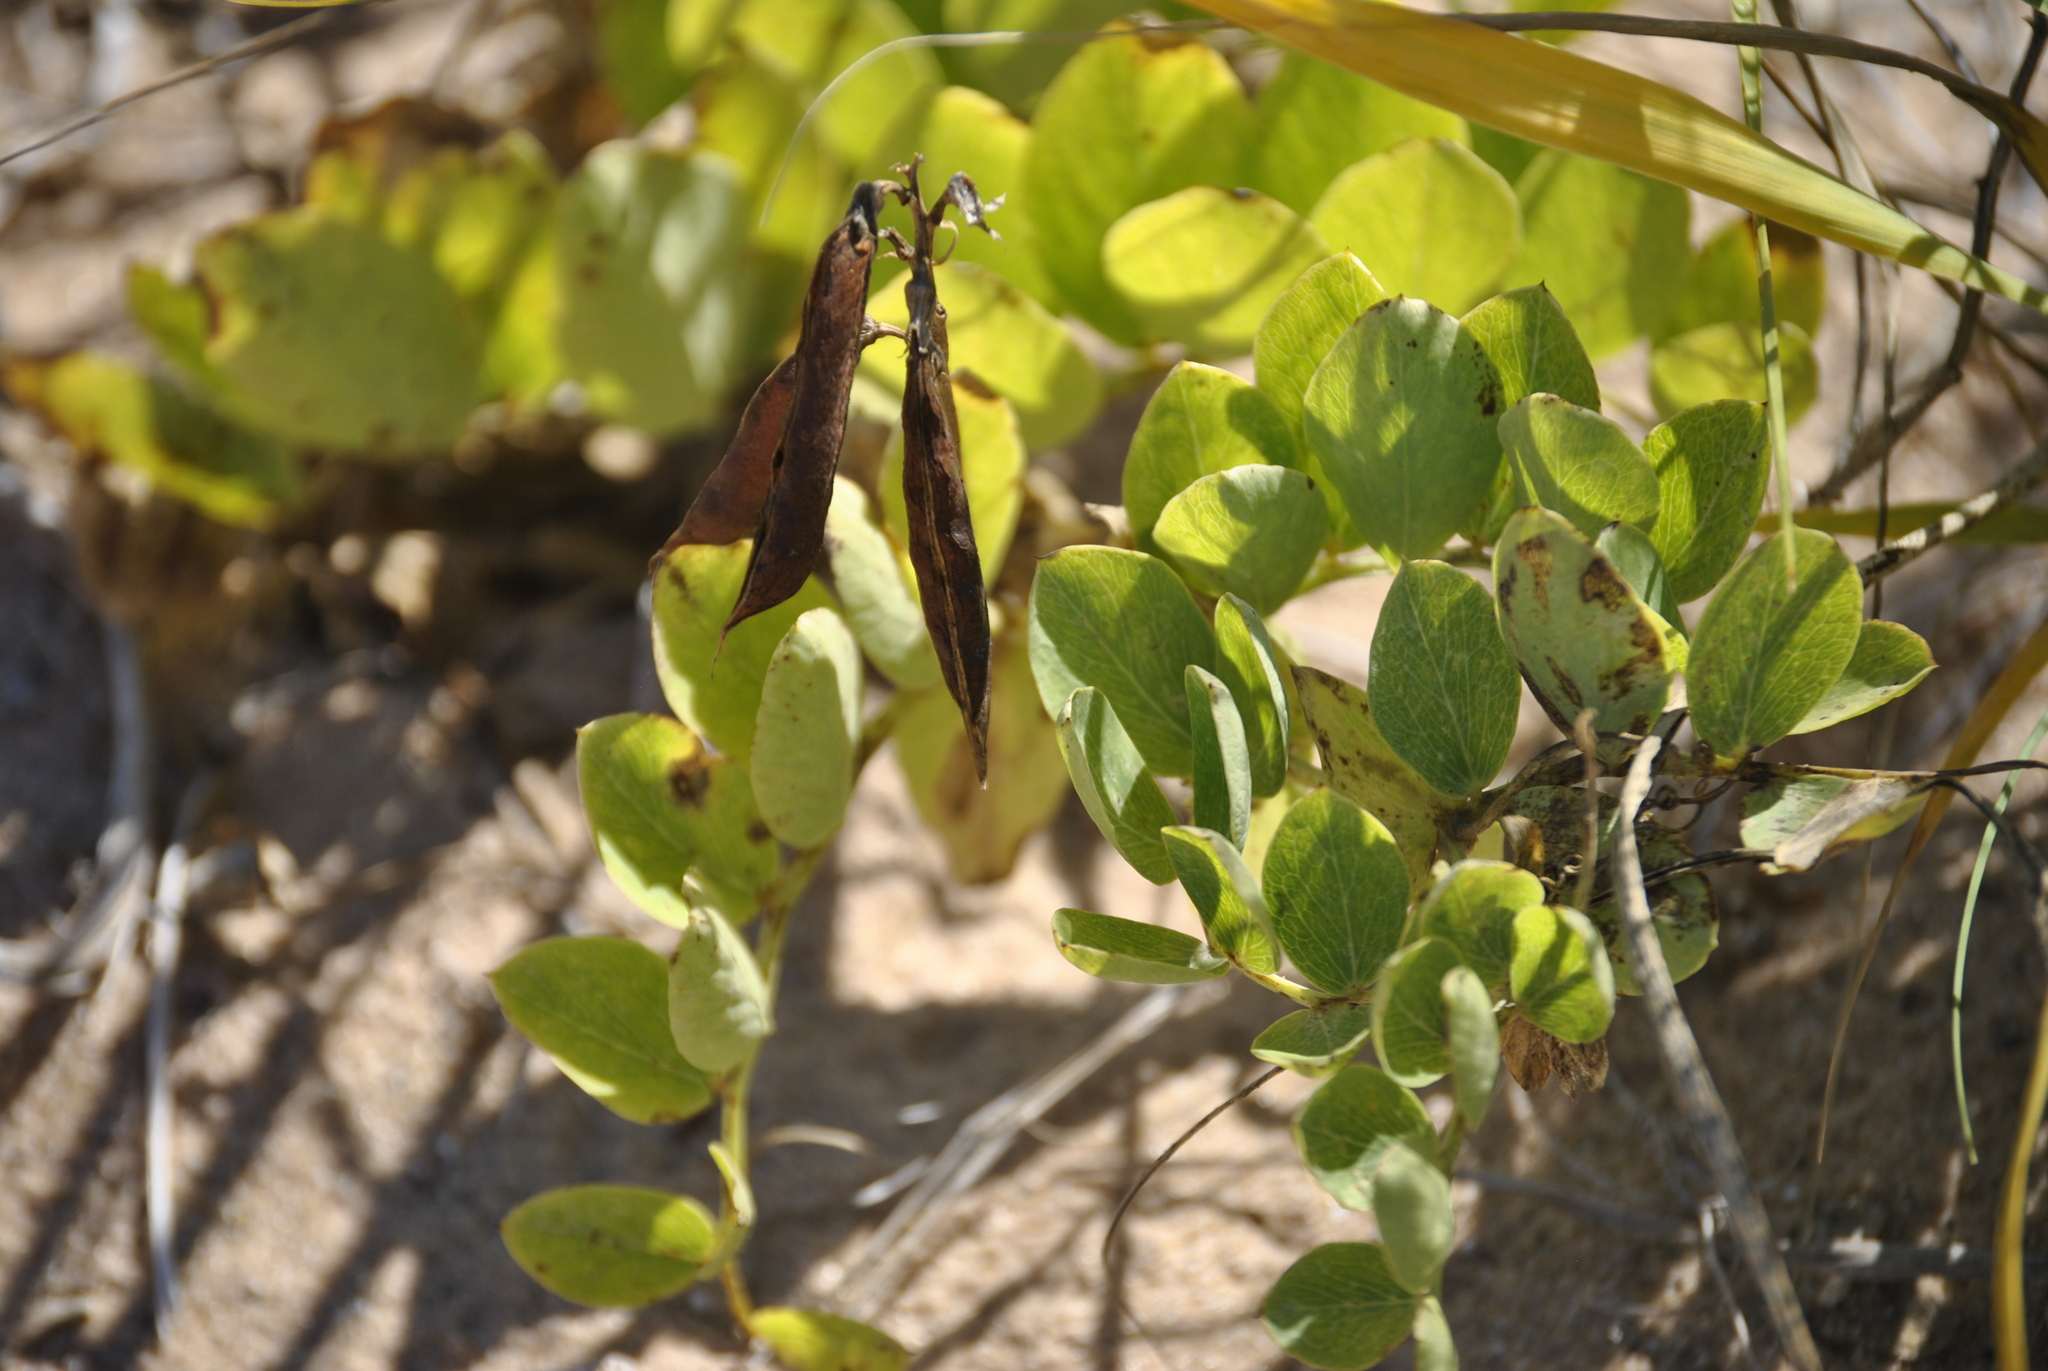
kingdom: Plantae
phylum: Tracheophyta
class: Magnoliopsida
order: Fabales
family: Fabaceae
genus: Lathyrus
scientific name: Lathyrus japonicus
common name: Sea pea
